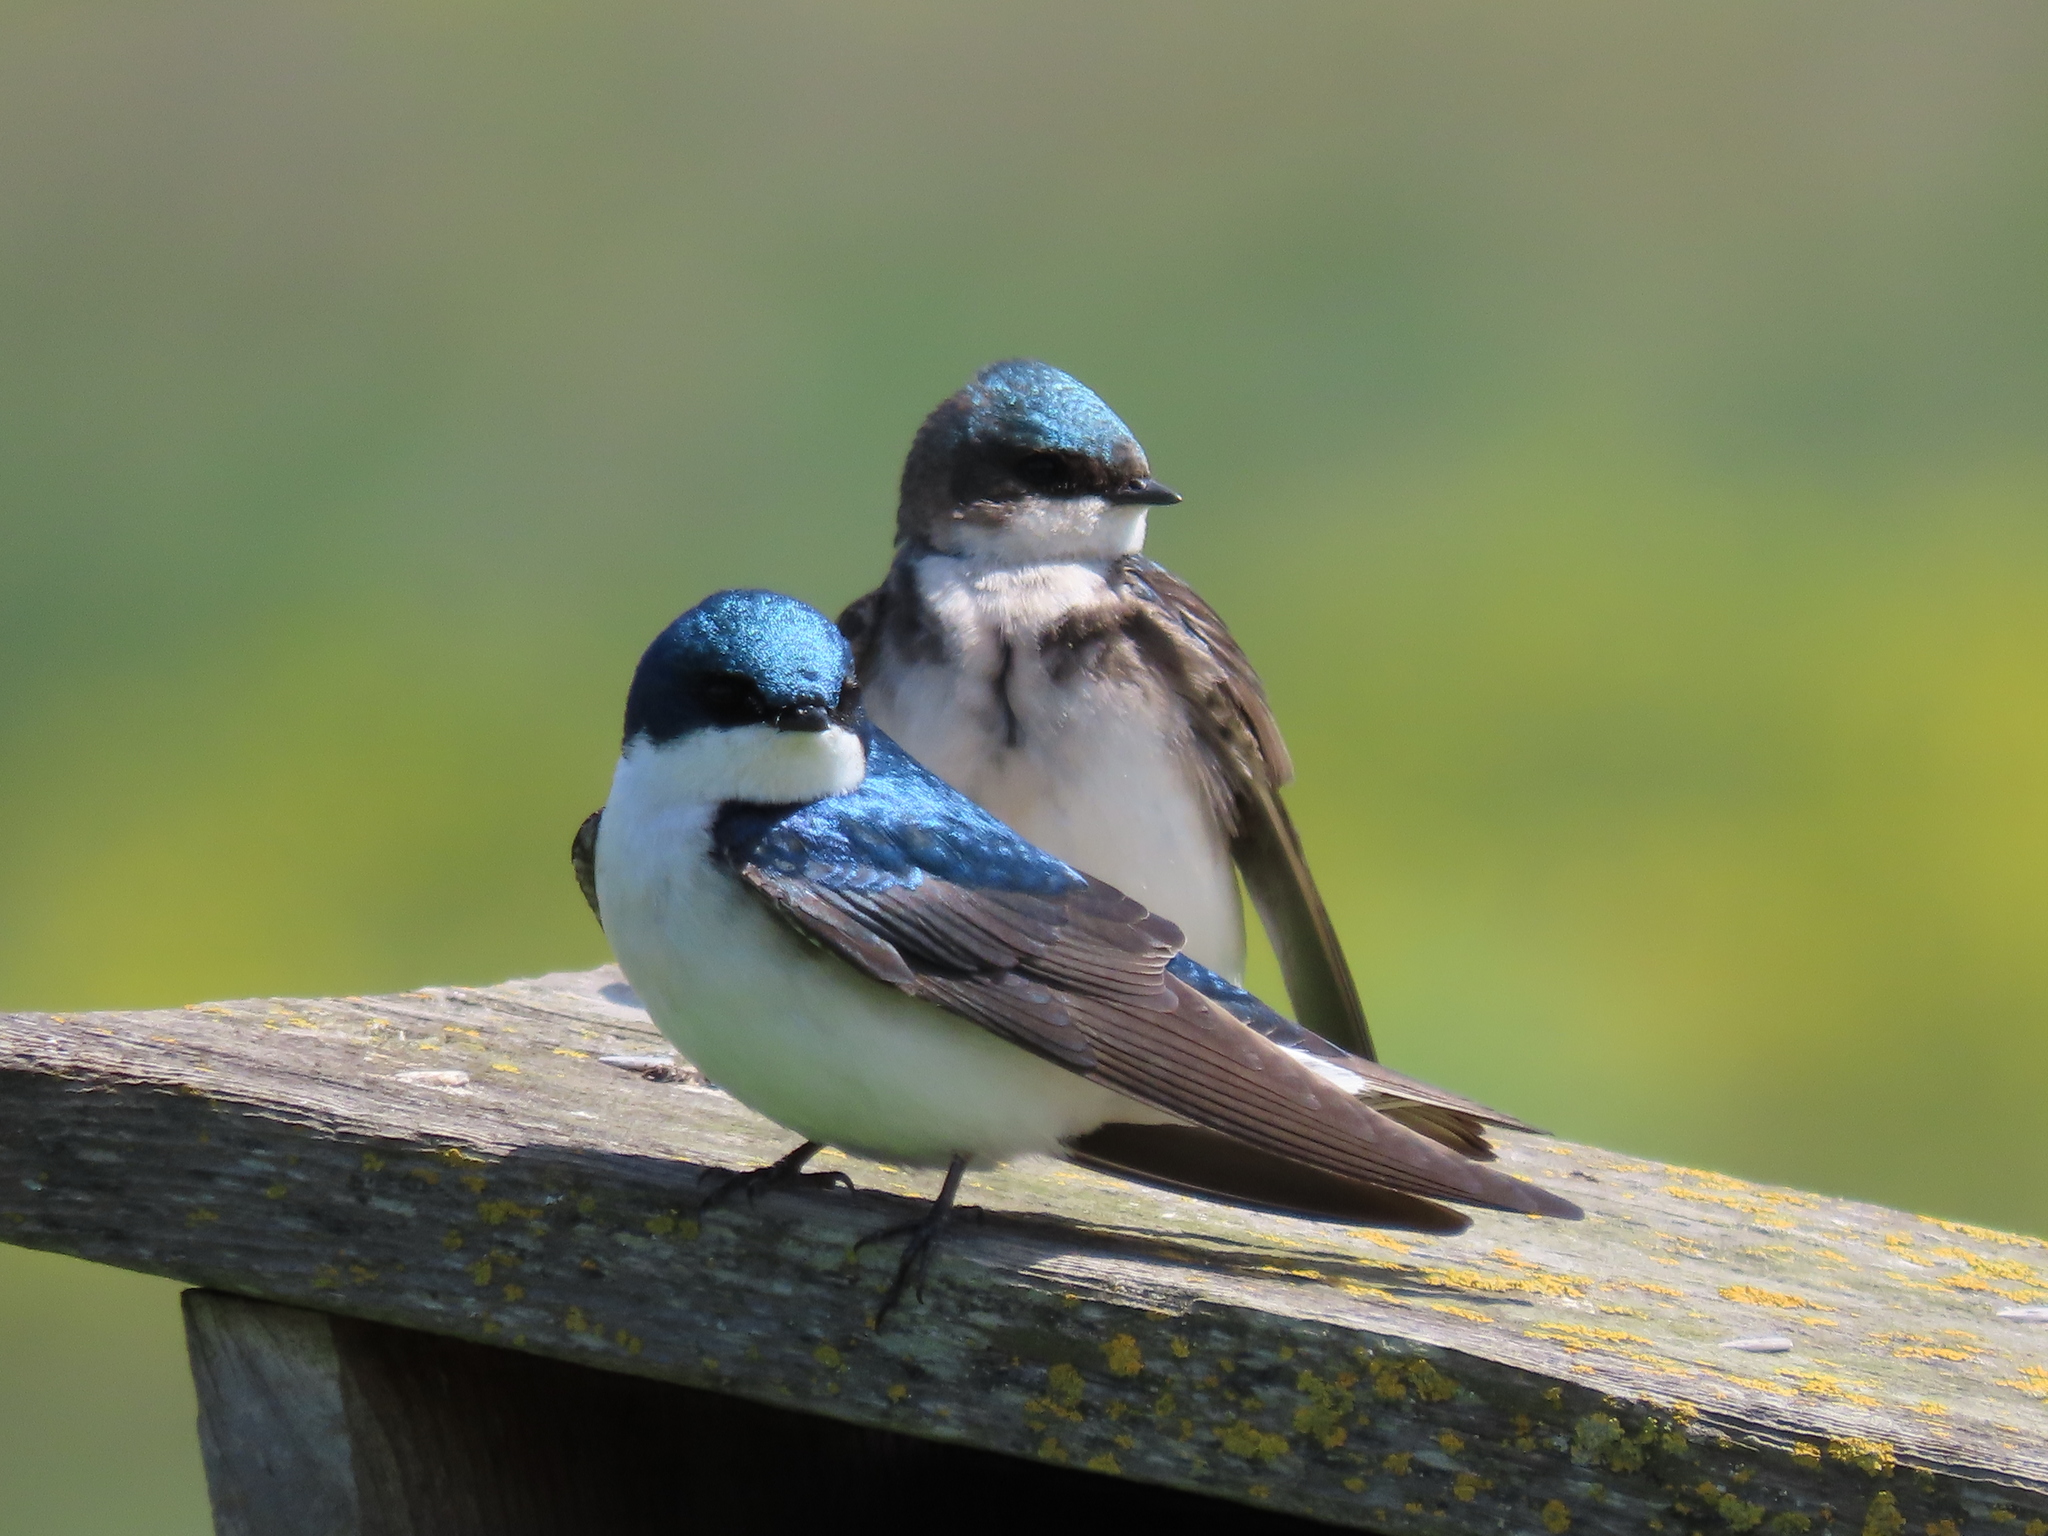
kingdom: Animalia
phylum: Chordata
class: Aves
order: Passeriformes
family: Hirundinidae
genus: Tachycineta
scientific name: Tachycineta bicolor
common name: Tree swallow
